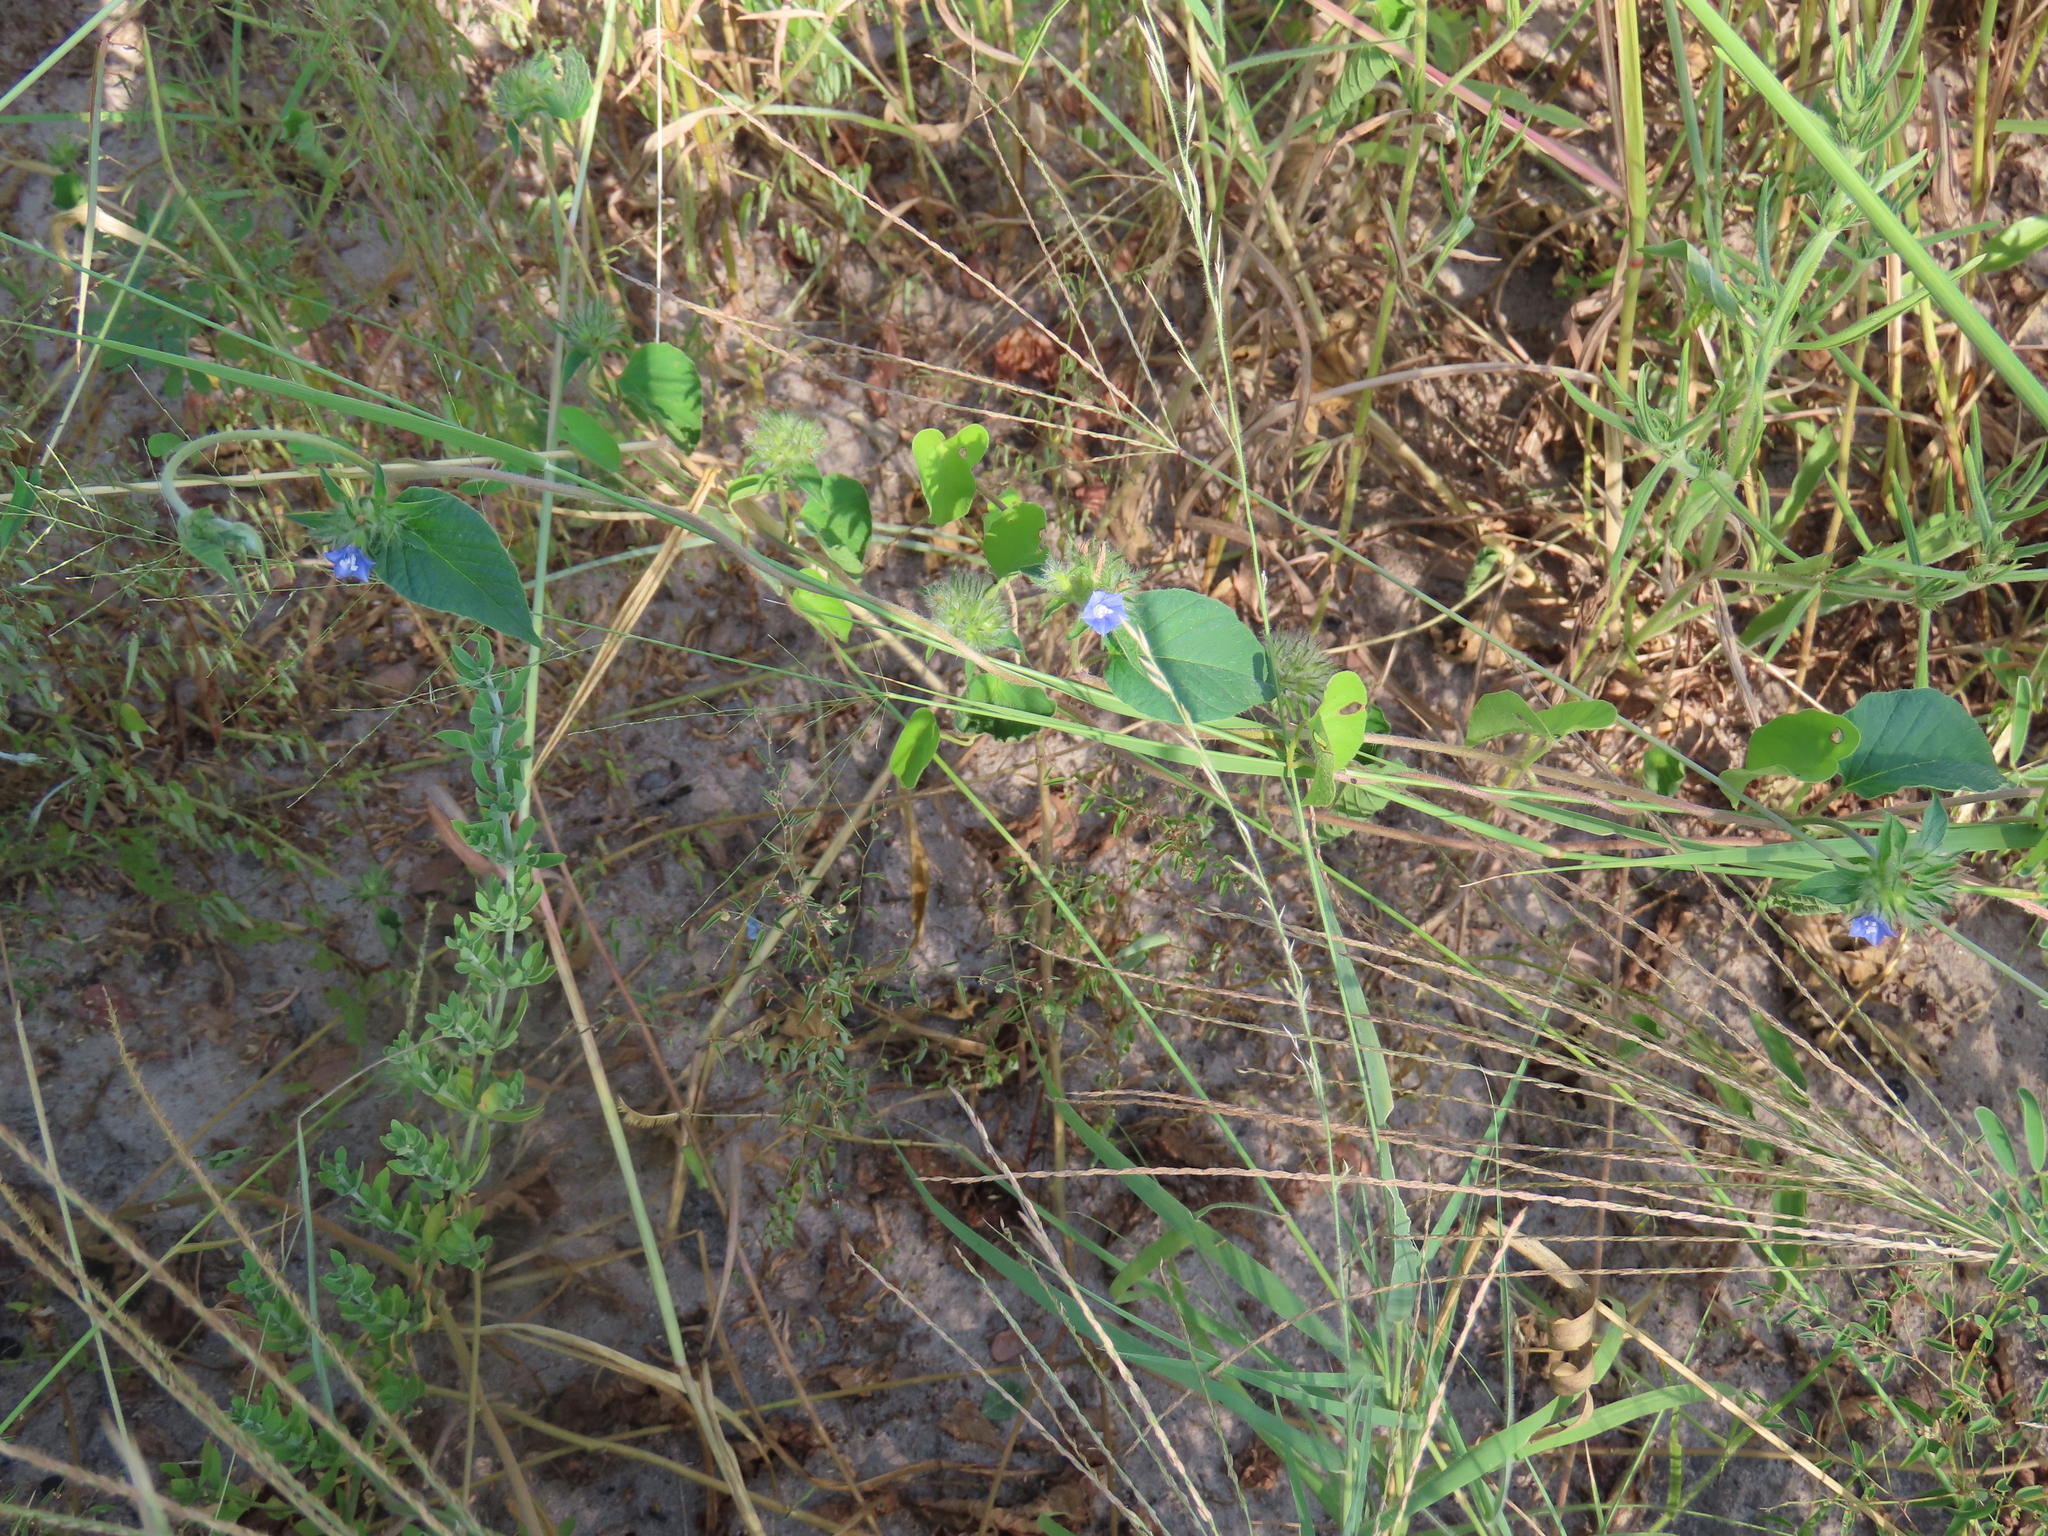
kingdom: Plantae
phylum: Tracheophyta
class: Magnoliopsida
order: Solanales
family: Convolvulaceae
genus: Jacquemontia
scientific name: Jacquemontia tamnifolia
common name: Hairy clustervine
